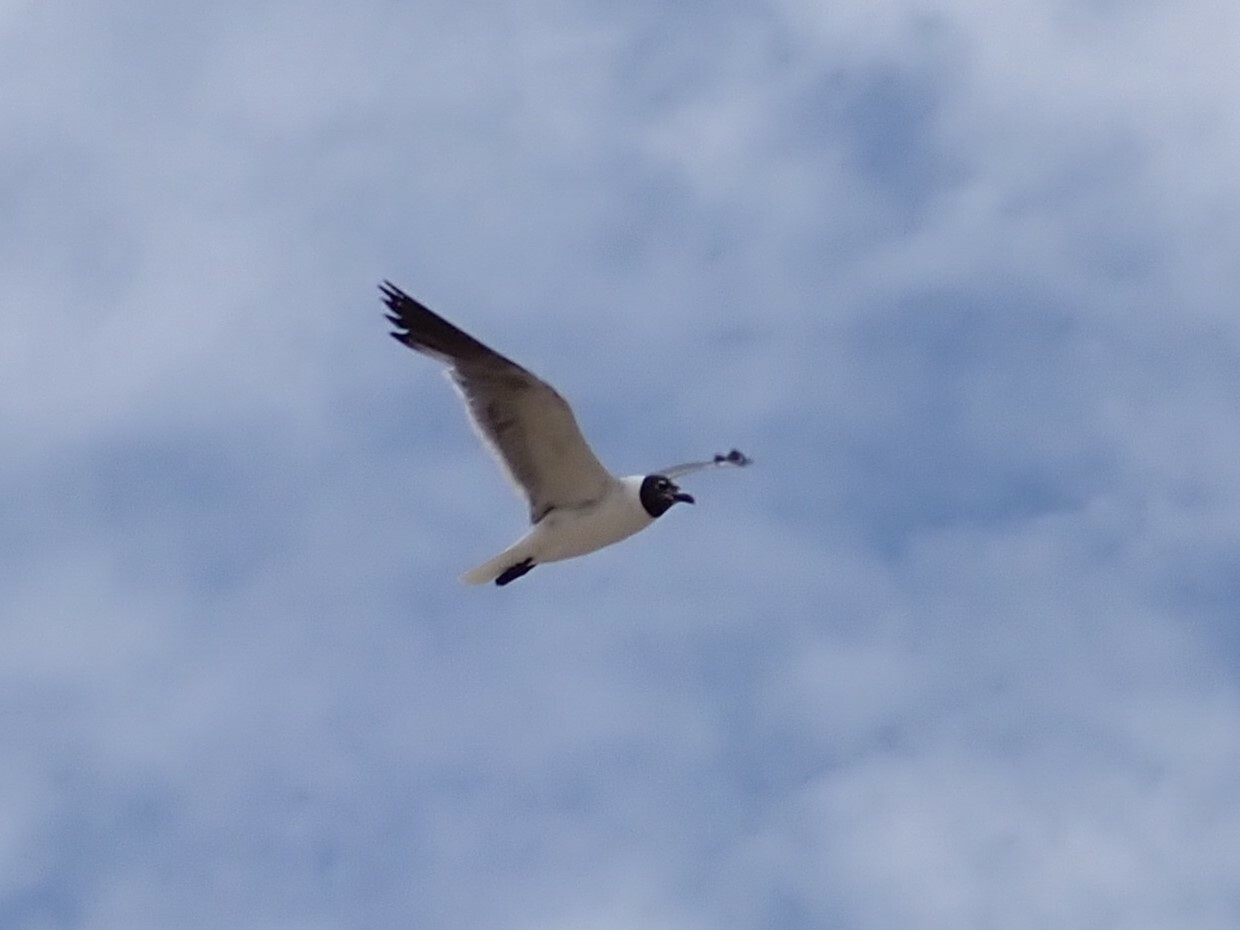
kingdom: Animalia
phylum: Chordata
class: Aves
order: Charadriiformes
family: Laridae
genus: Leucophaeus
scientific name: Leucophaeus atricilla
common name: Laughing gull
